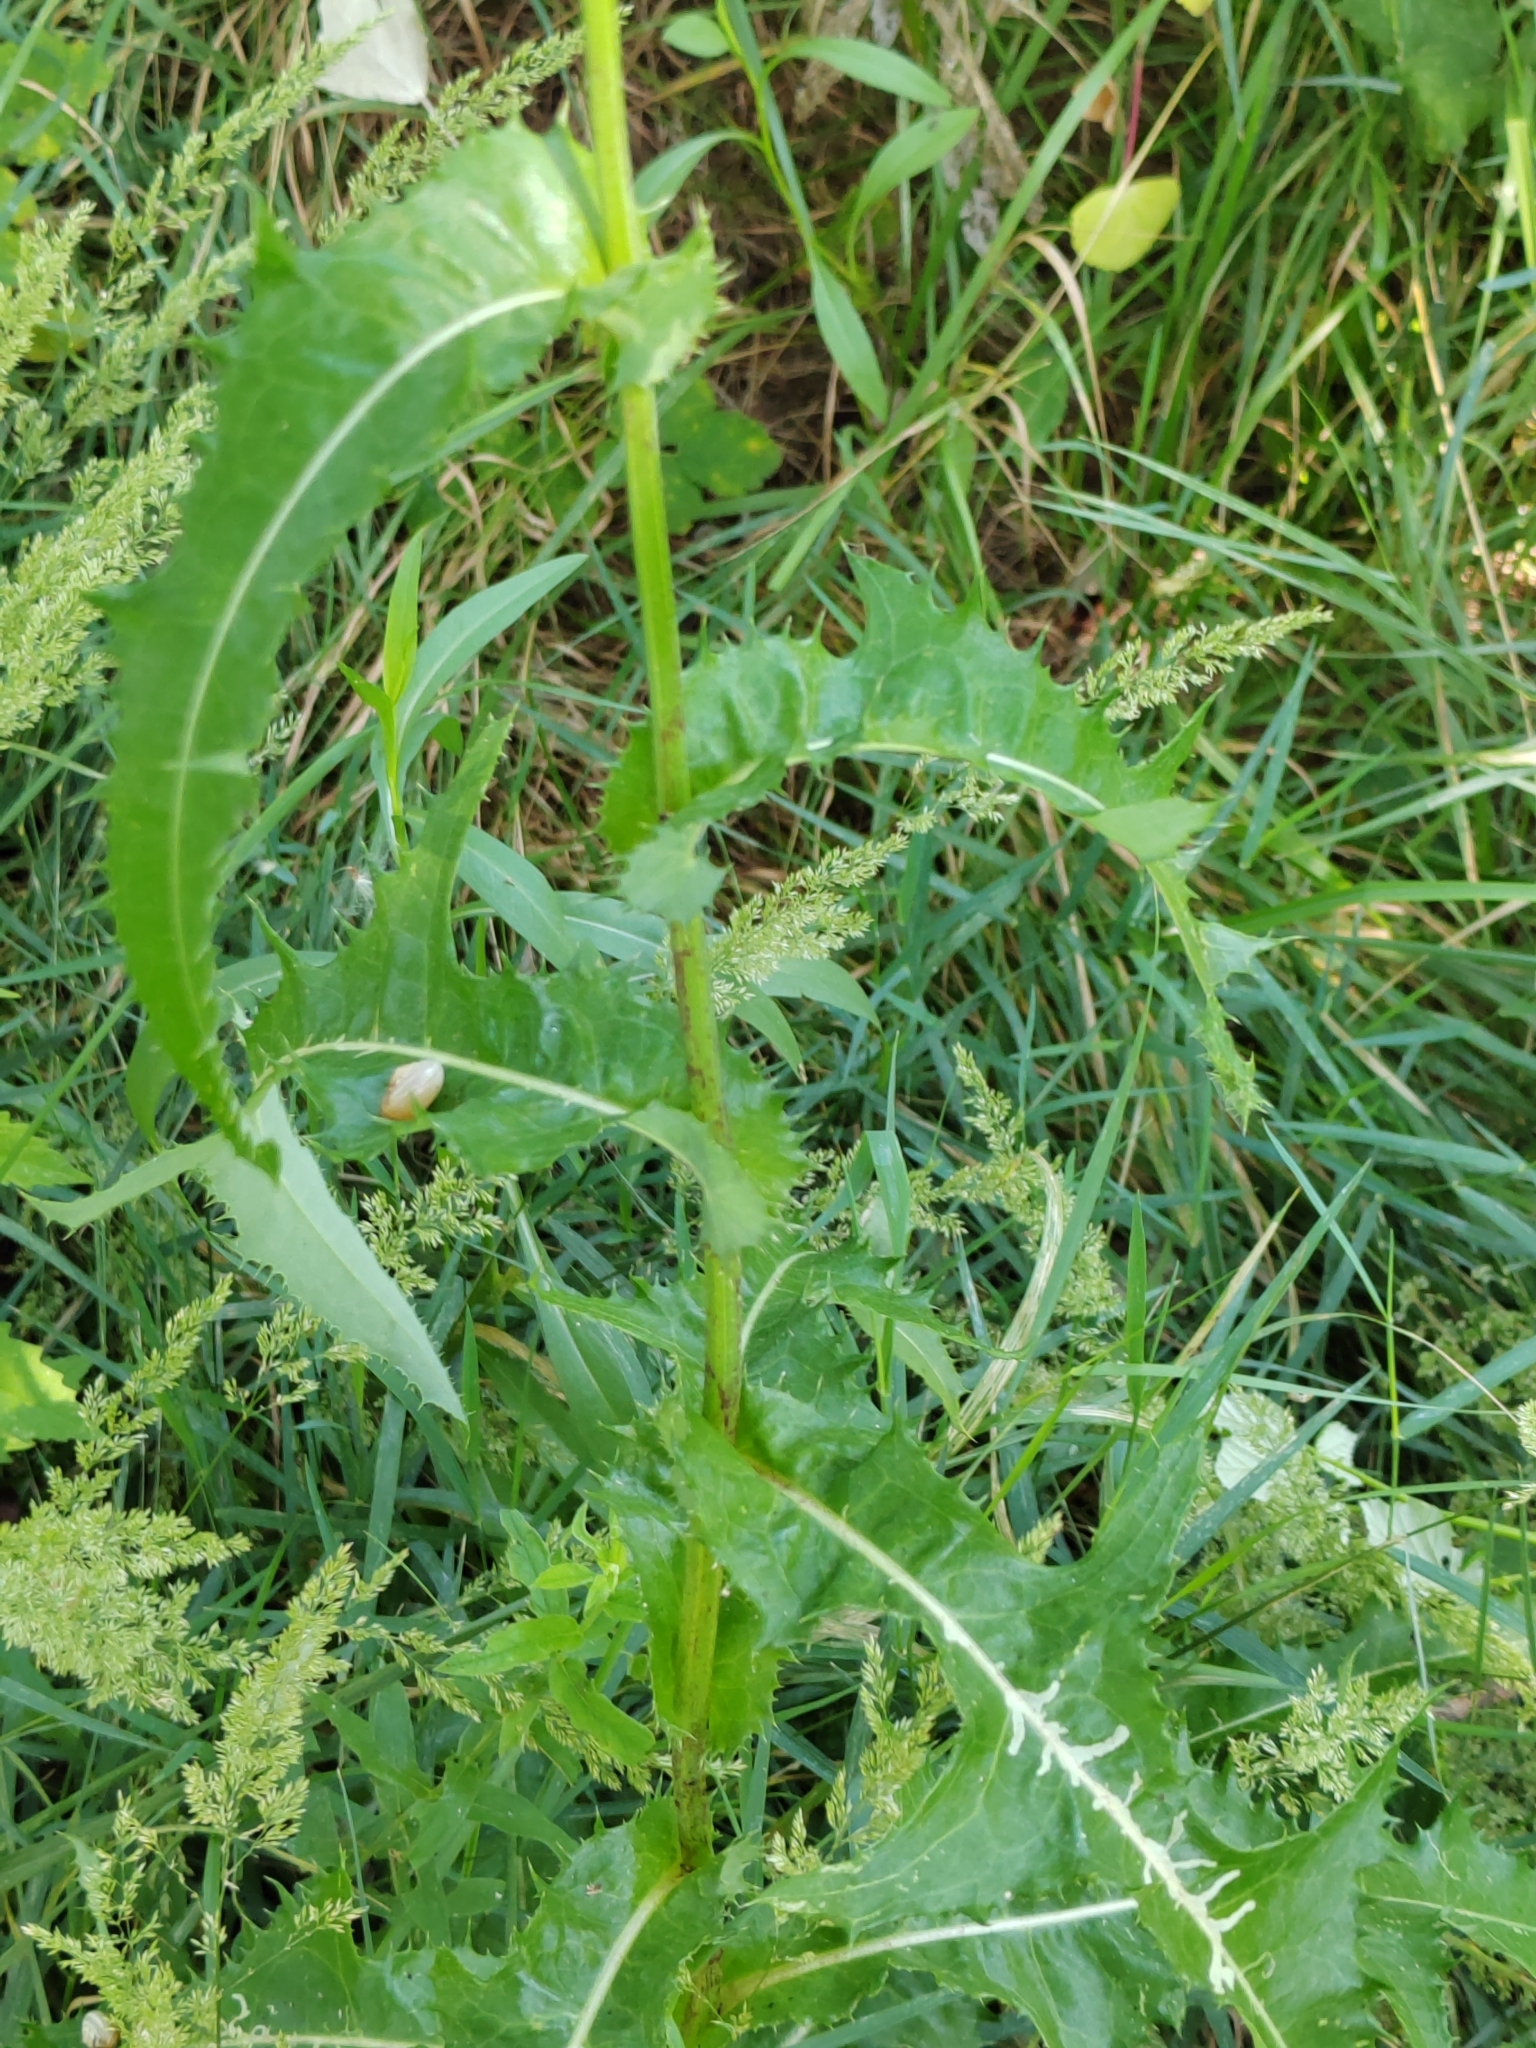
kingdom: Plantae
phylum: Tracheophyta
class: Magnoliopsida
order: Asterales
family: Asteraceae
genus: Sonchus
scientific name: Sonchus arvensis
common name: Perennial sow-thistle
